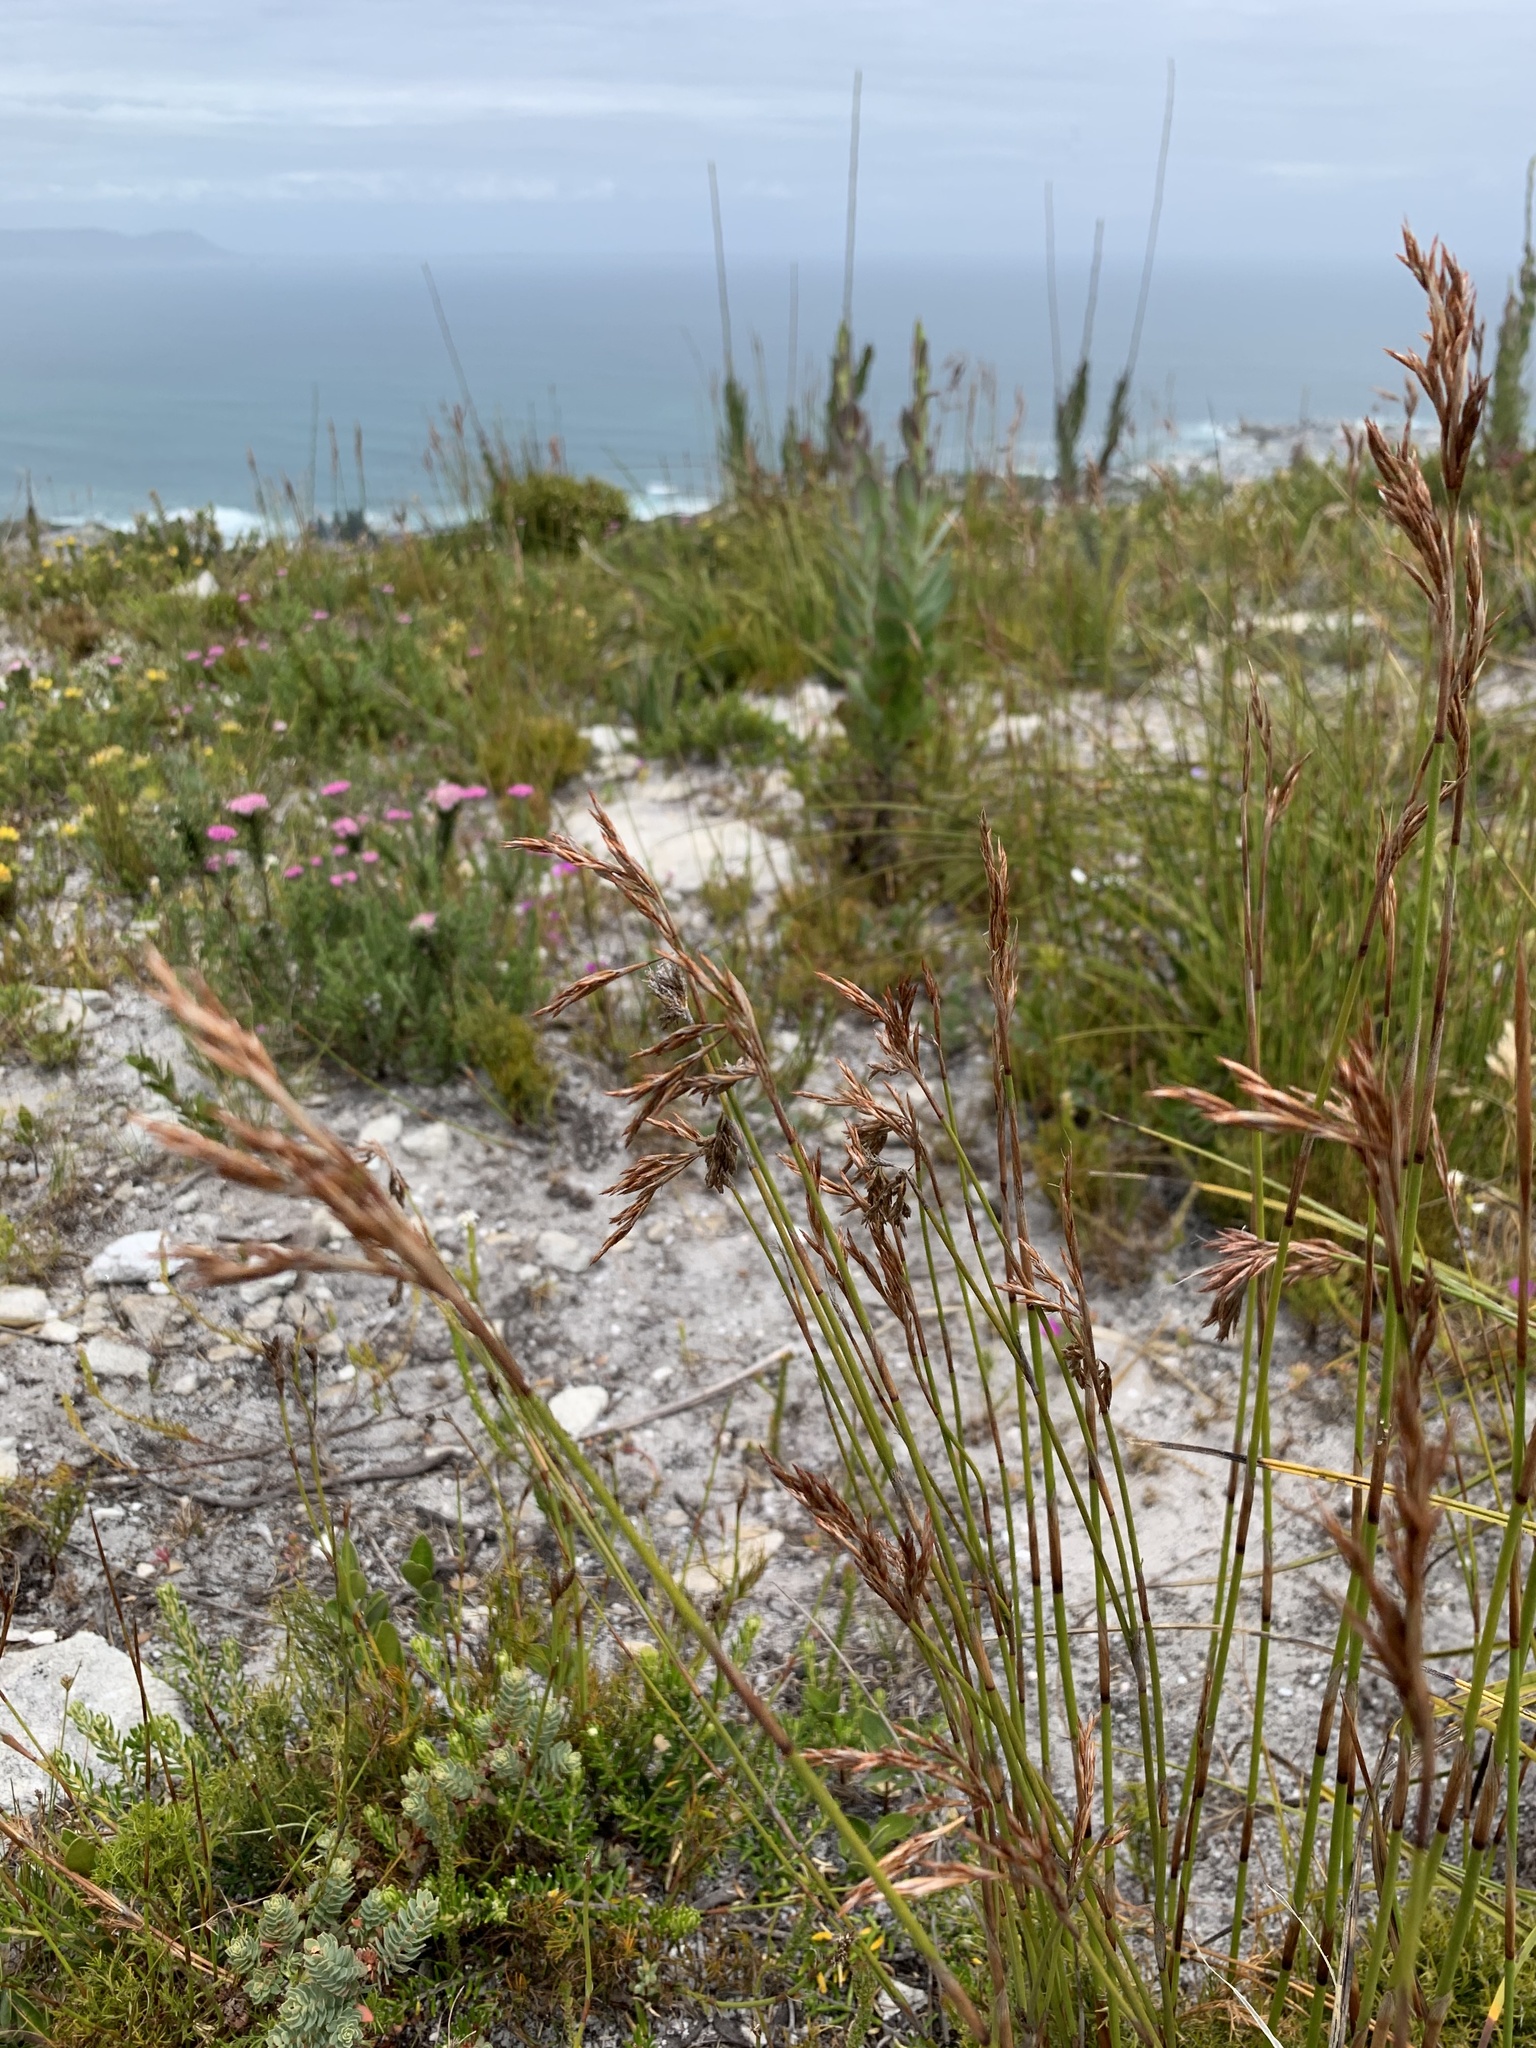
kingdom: Plantae
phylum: Tracheophyta
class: Liliopsida
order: Poales
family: Restionaceae
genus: Thamnochortus
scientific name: Thamnochortus gracilis
